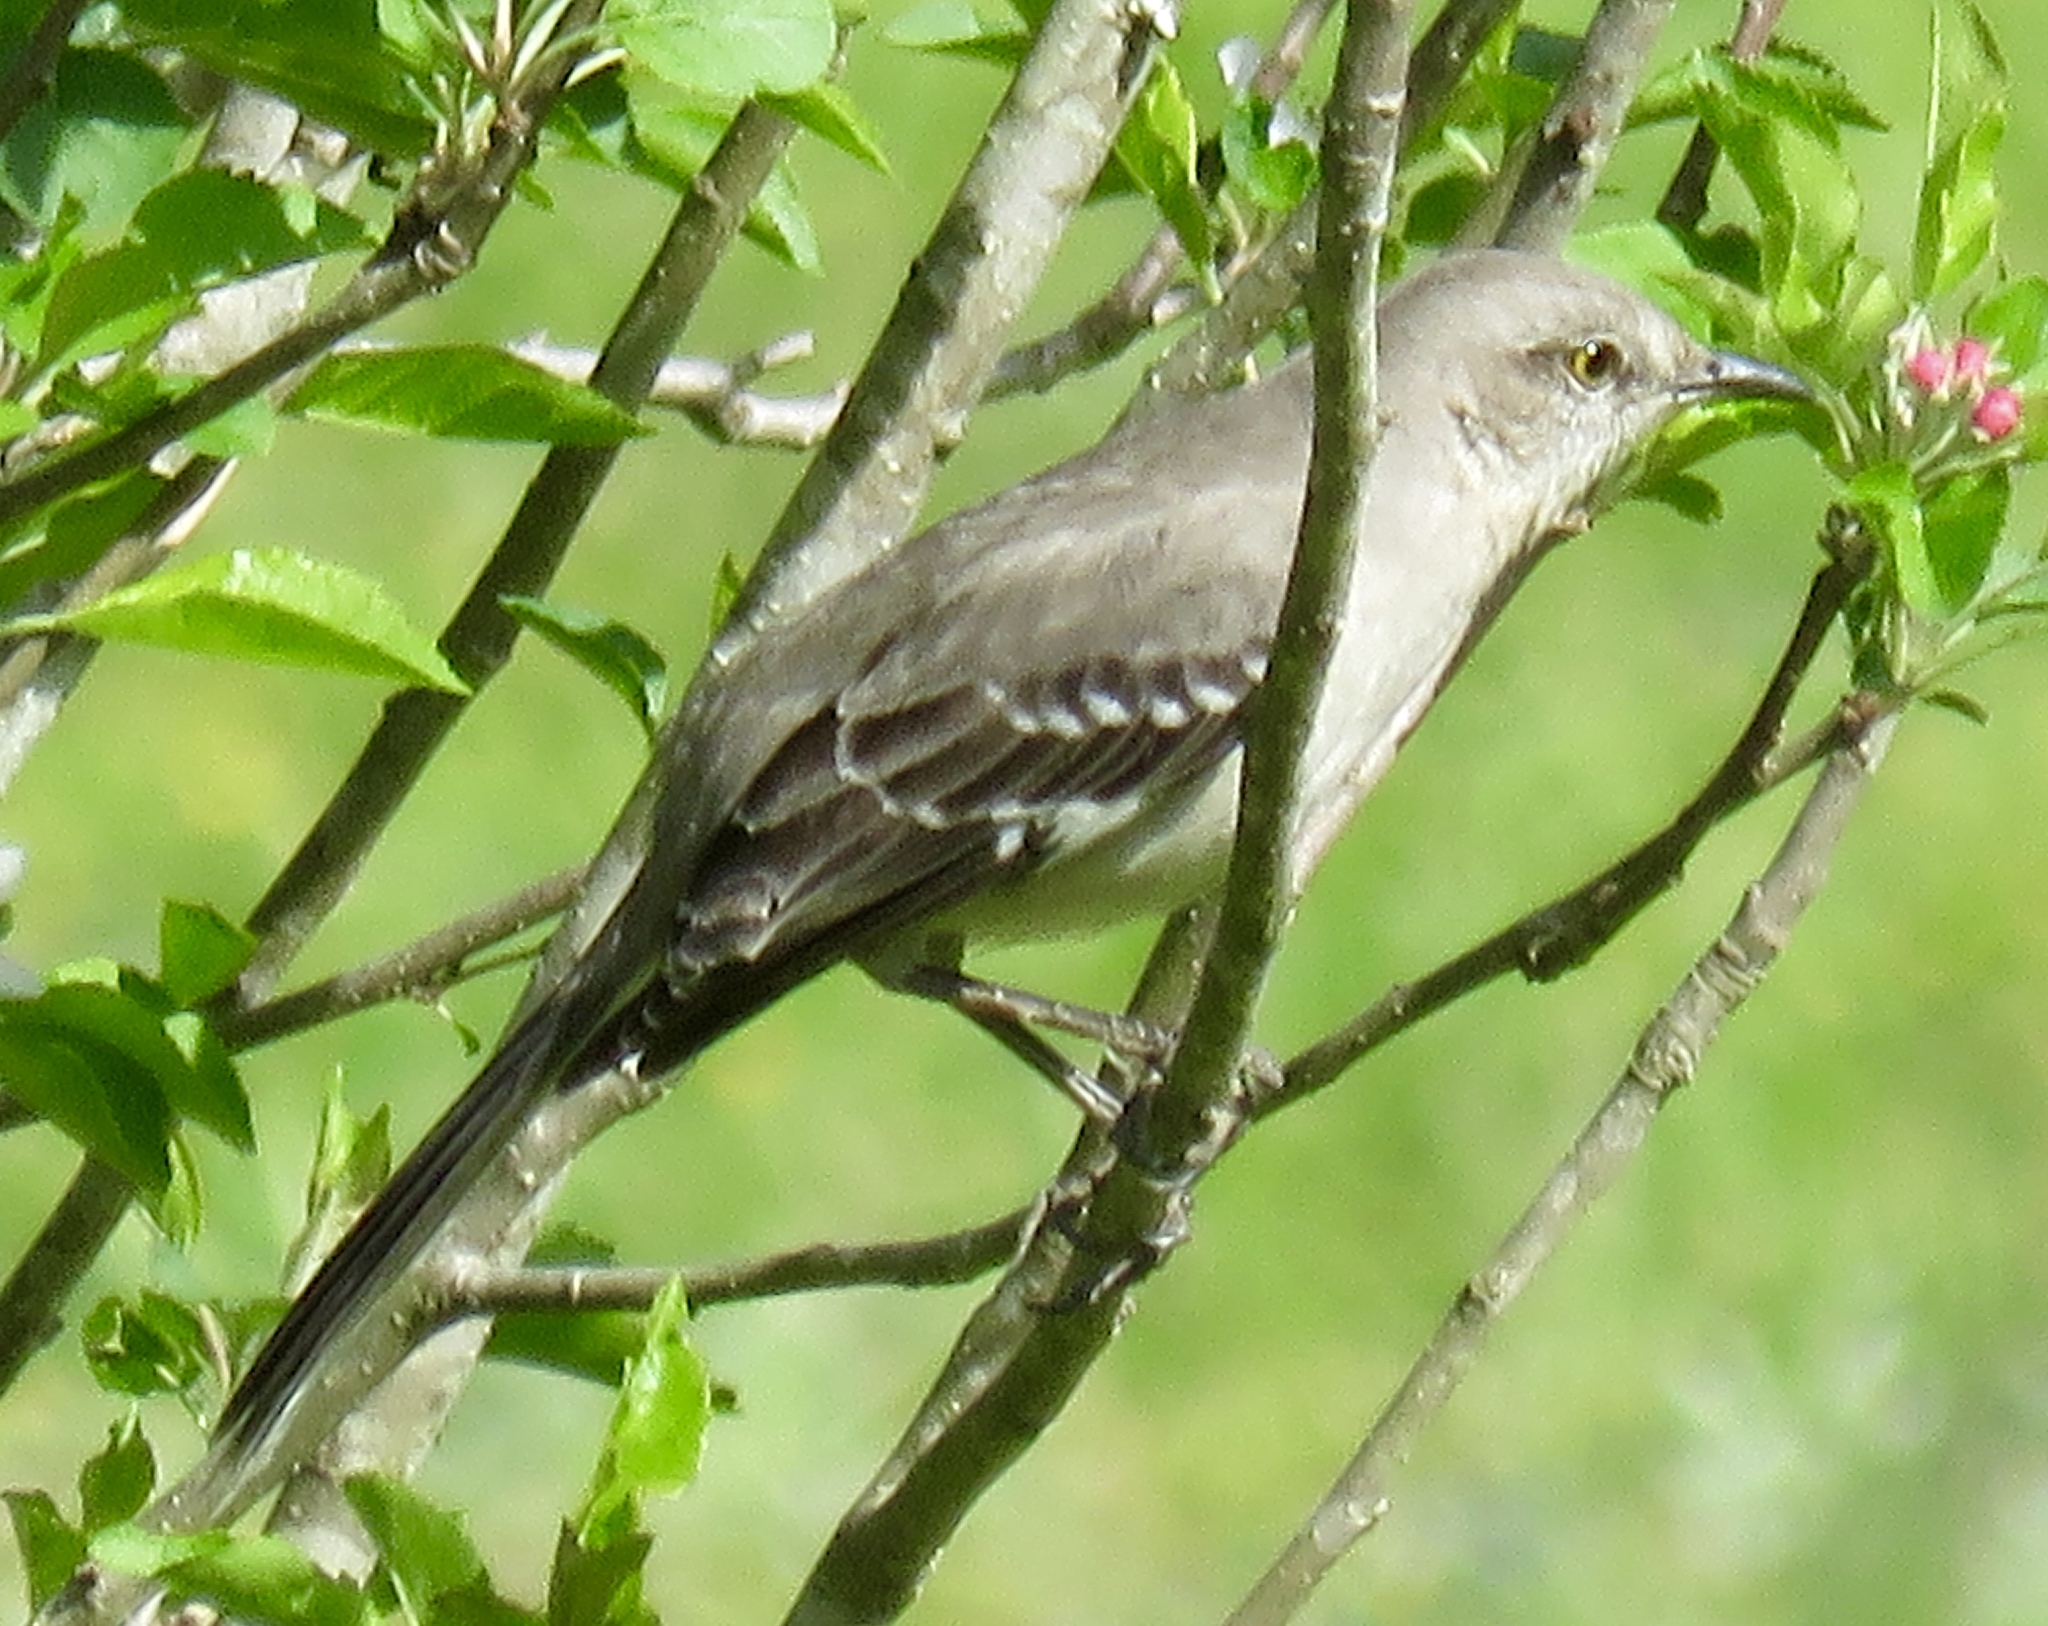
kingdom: Animalia
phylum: Chordata
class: Aves
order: Passeriformes
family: Mimidae
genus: Mimus
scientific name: Mimus polyglottos
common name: Northern mockingbird
